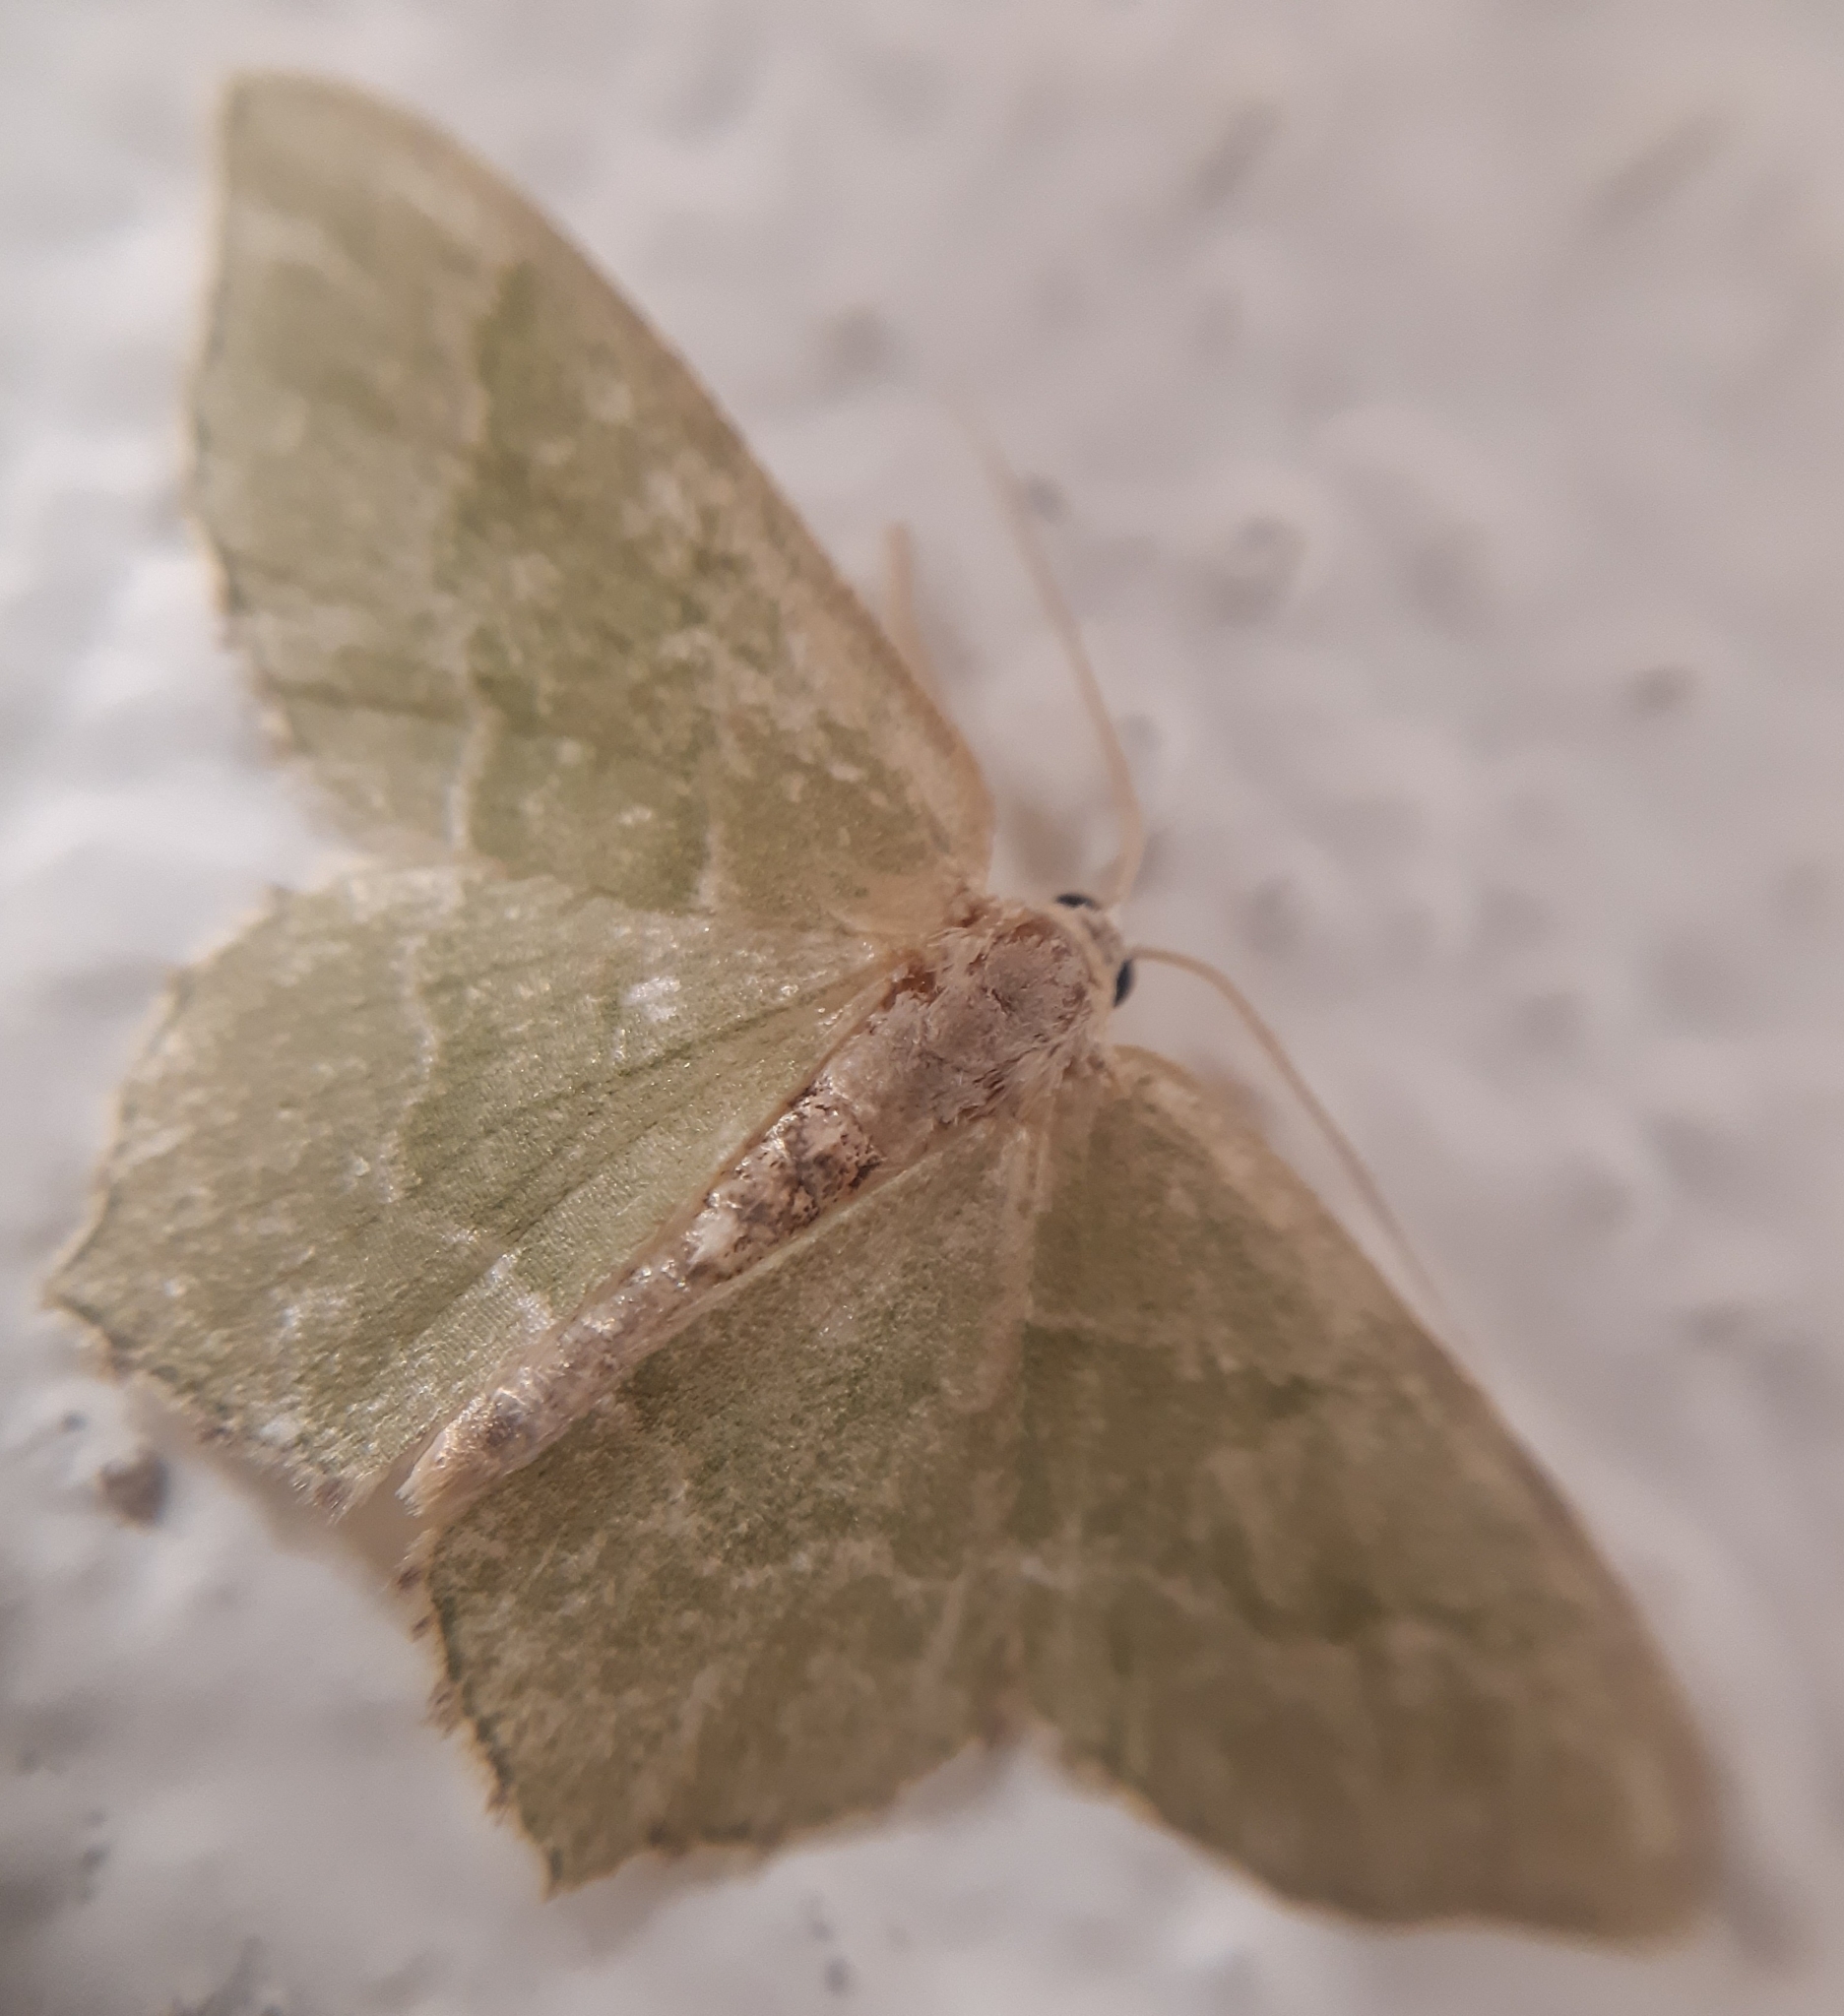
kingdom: Animalia
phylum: Arthropoda
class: Insecta
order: Lepidoptera
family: Geometridae
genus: Hemithea
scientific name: Hemithea aestivaria
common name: Common emerald
